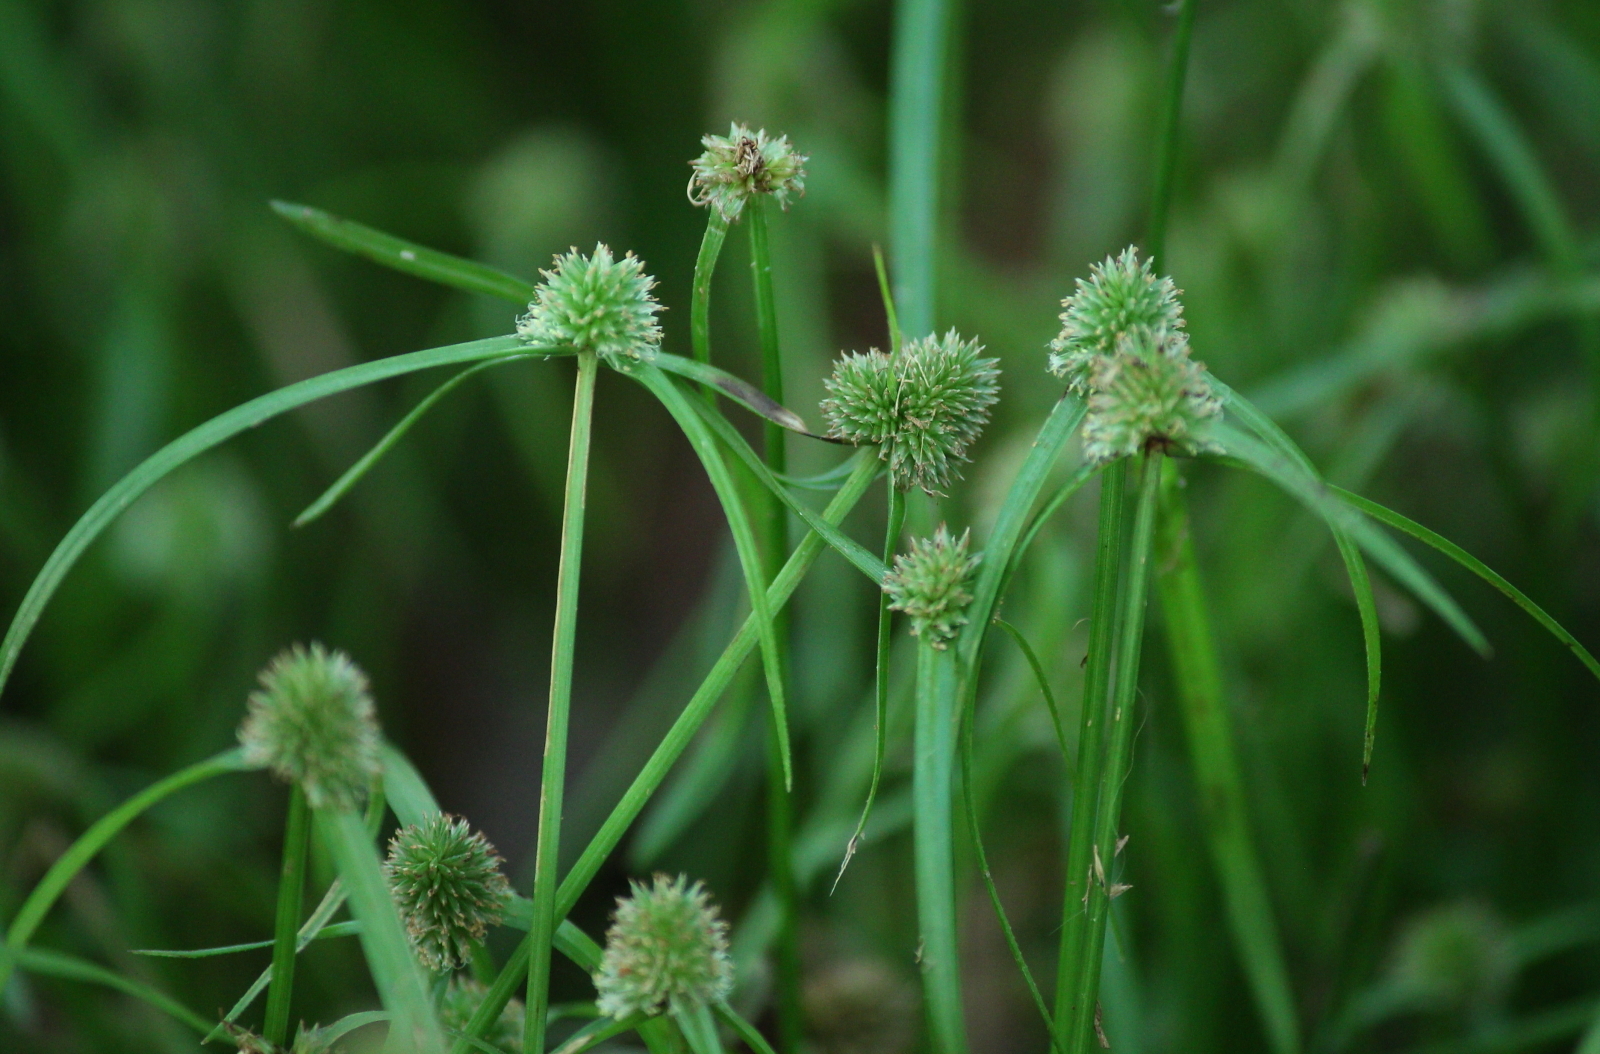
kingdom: Plantae
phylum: Tracheophyta
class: Liliopsida
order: Poales
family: Cyperaceae
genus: Cyperus
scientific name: Cyperus hortensis
